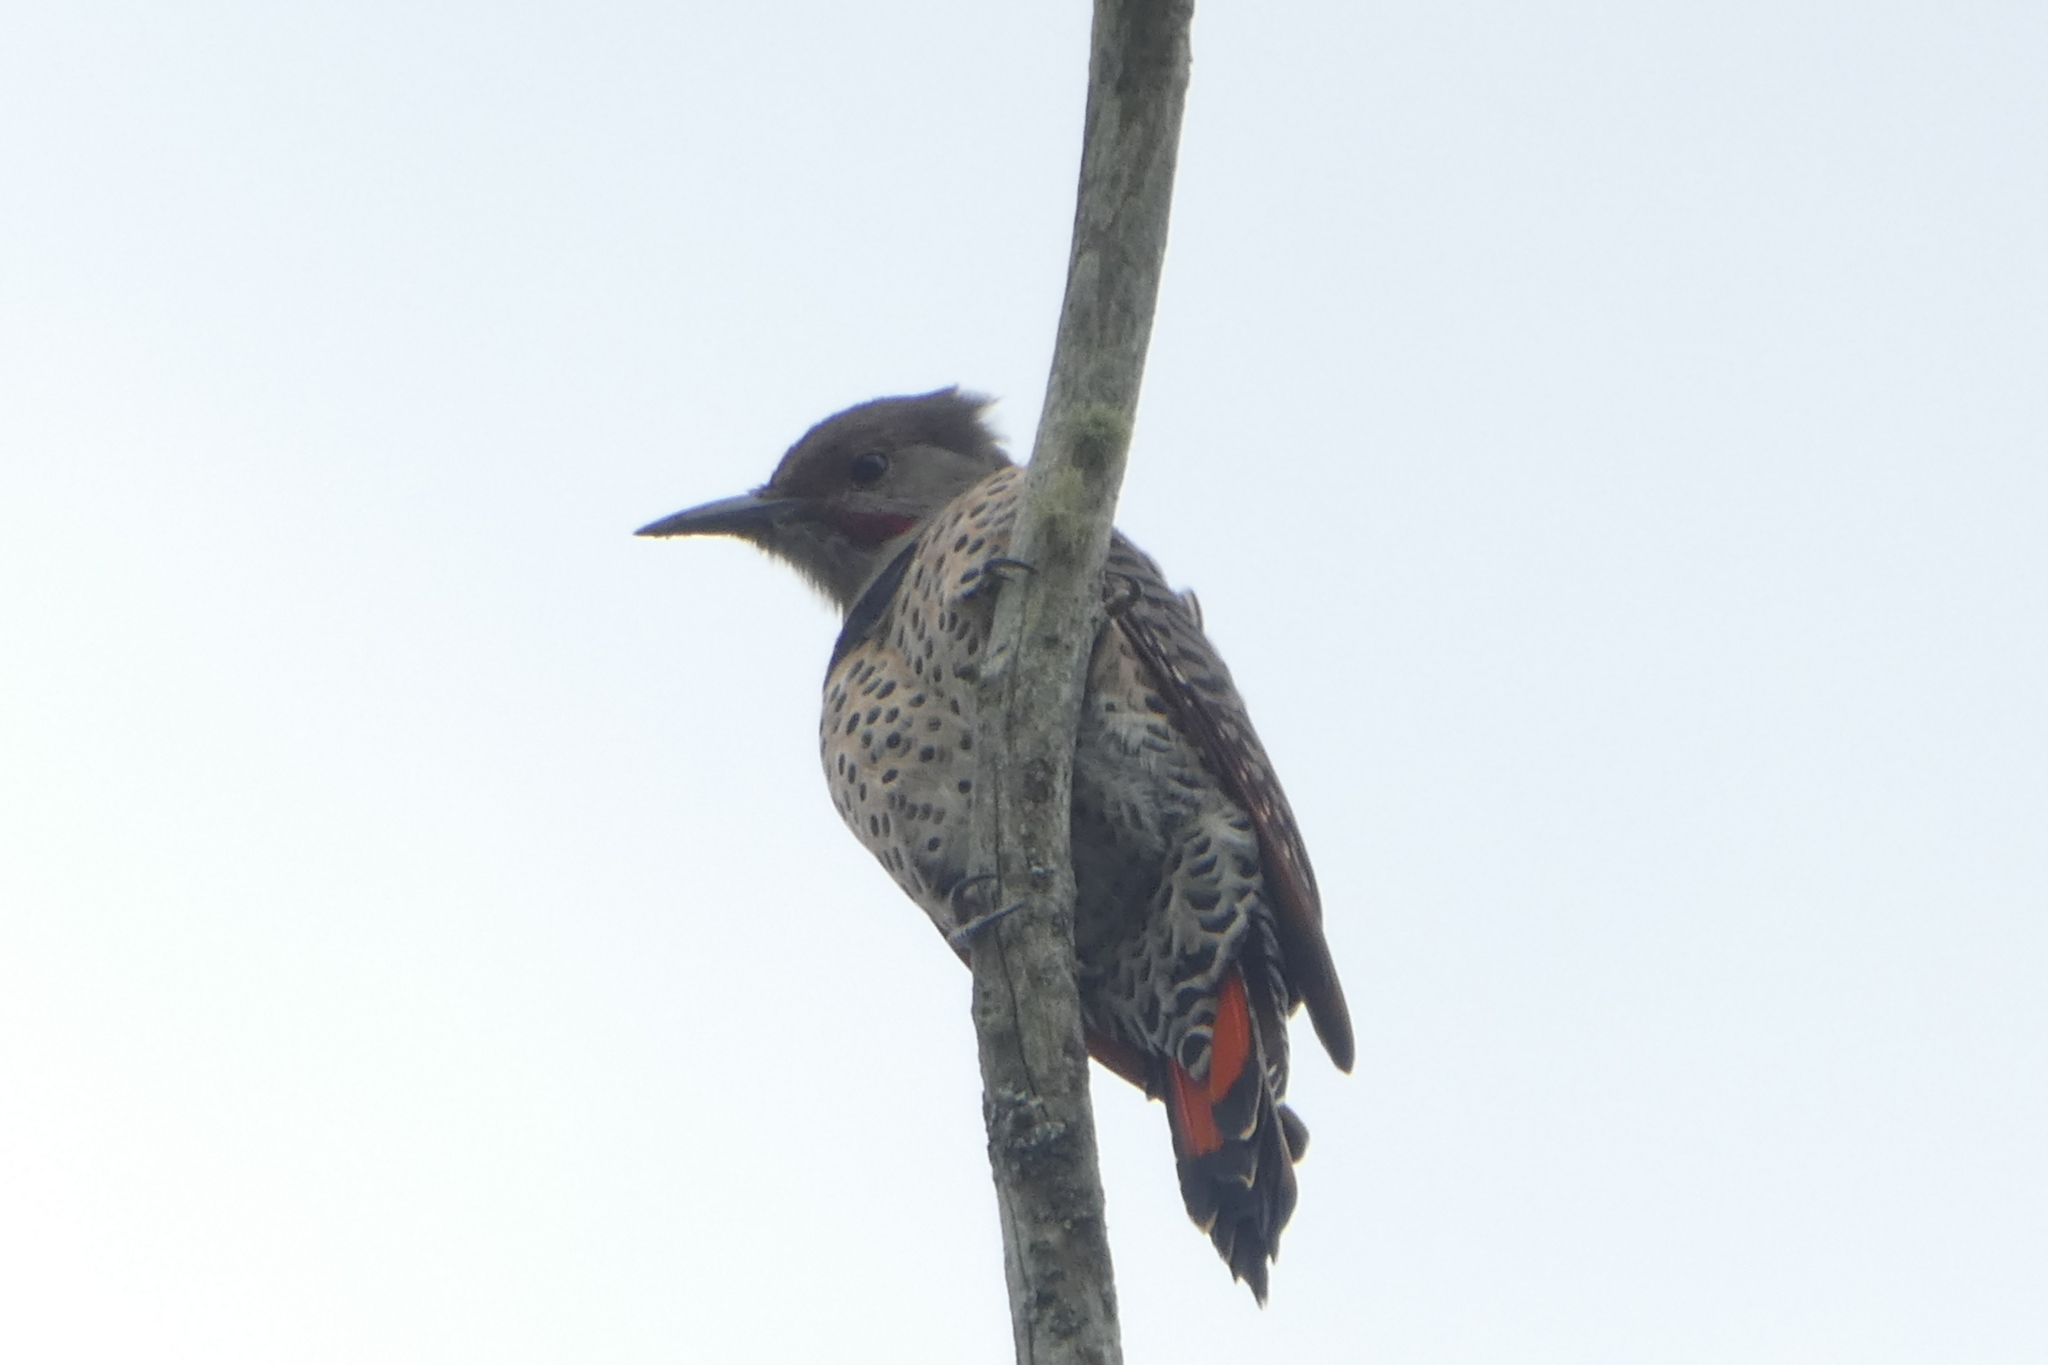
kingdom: Animalia
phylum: Chordata
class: Aves
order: Piciformes
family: Picidae
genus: Colaptes
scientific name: Colaptes auratus
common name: Northern flicker
